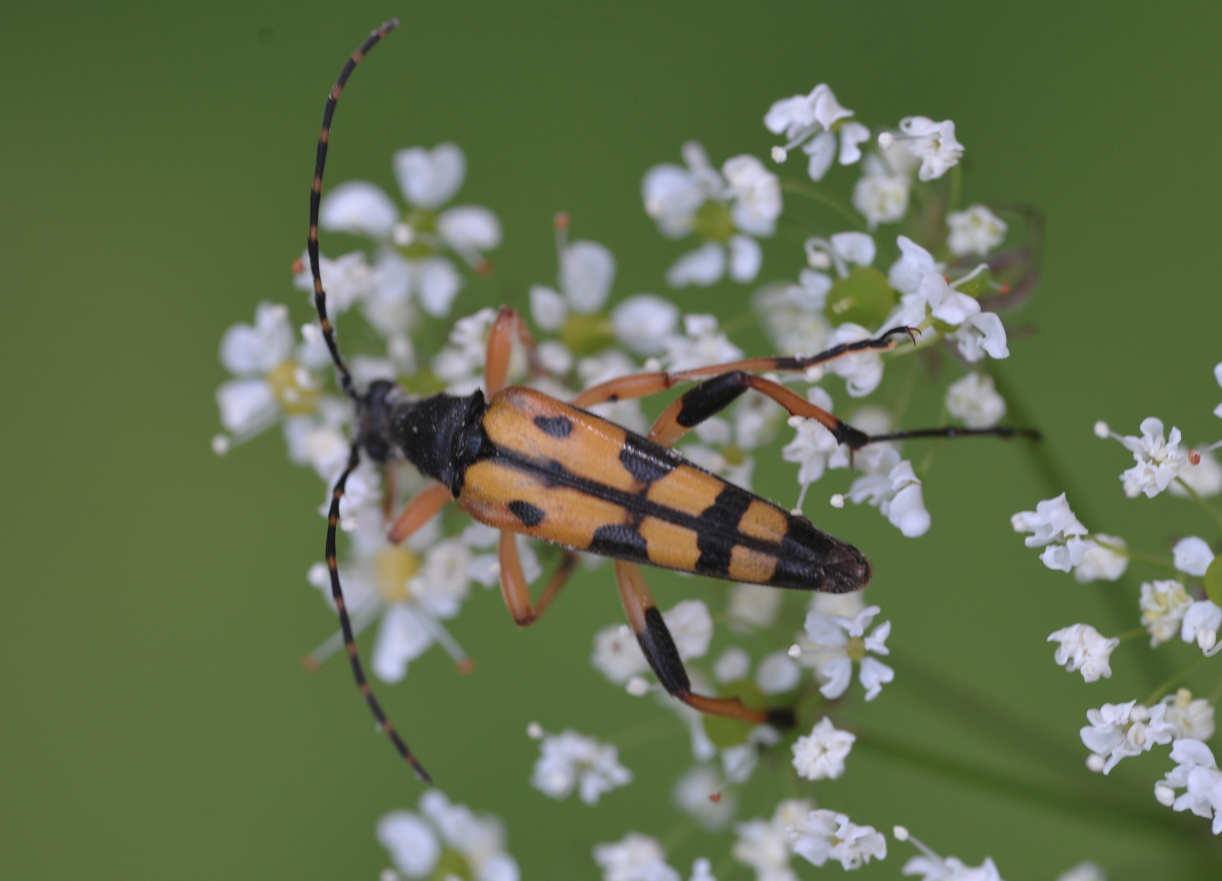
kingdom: Animalia
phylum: Arthropoda
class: Insecta
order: Coleoptera
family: Cerambycidae
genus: Rutpela
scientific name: Rutpela maculata
